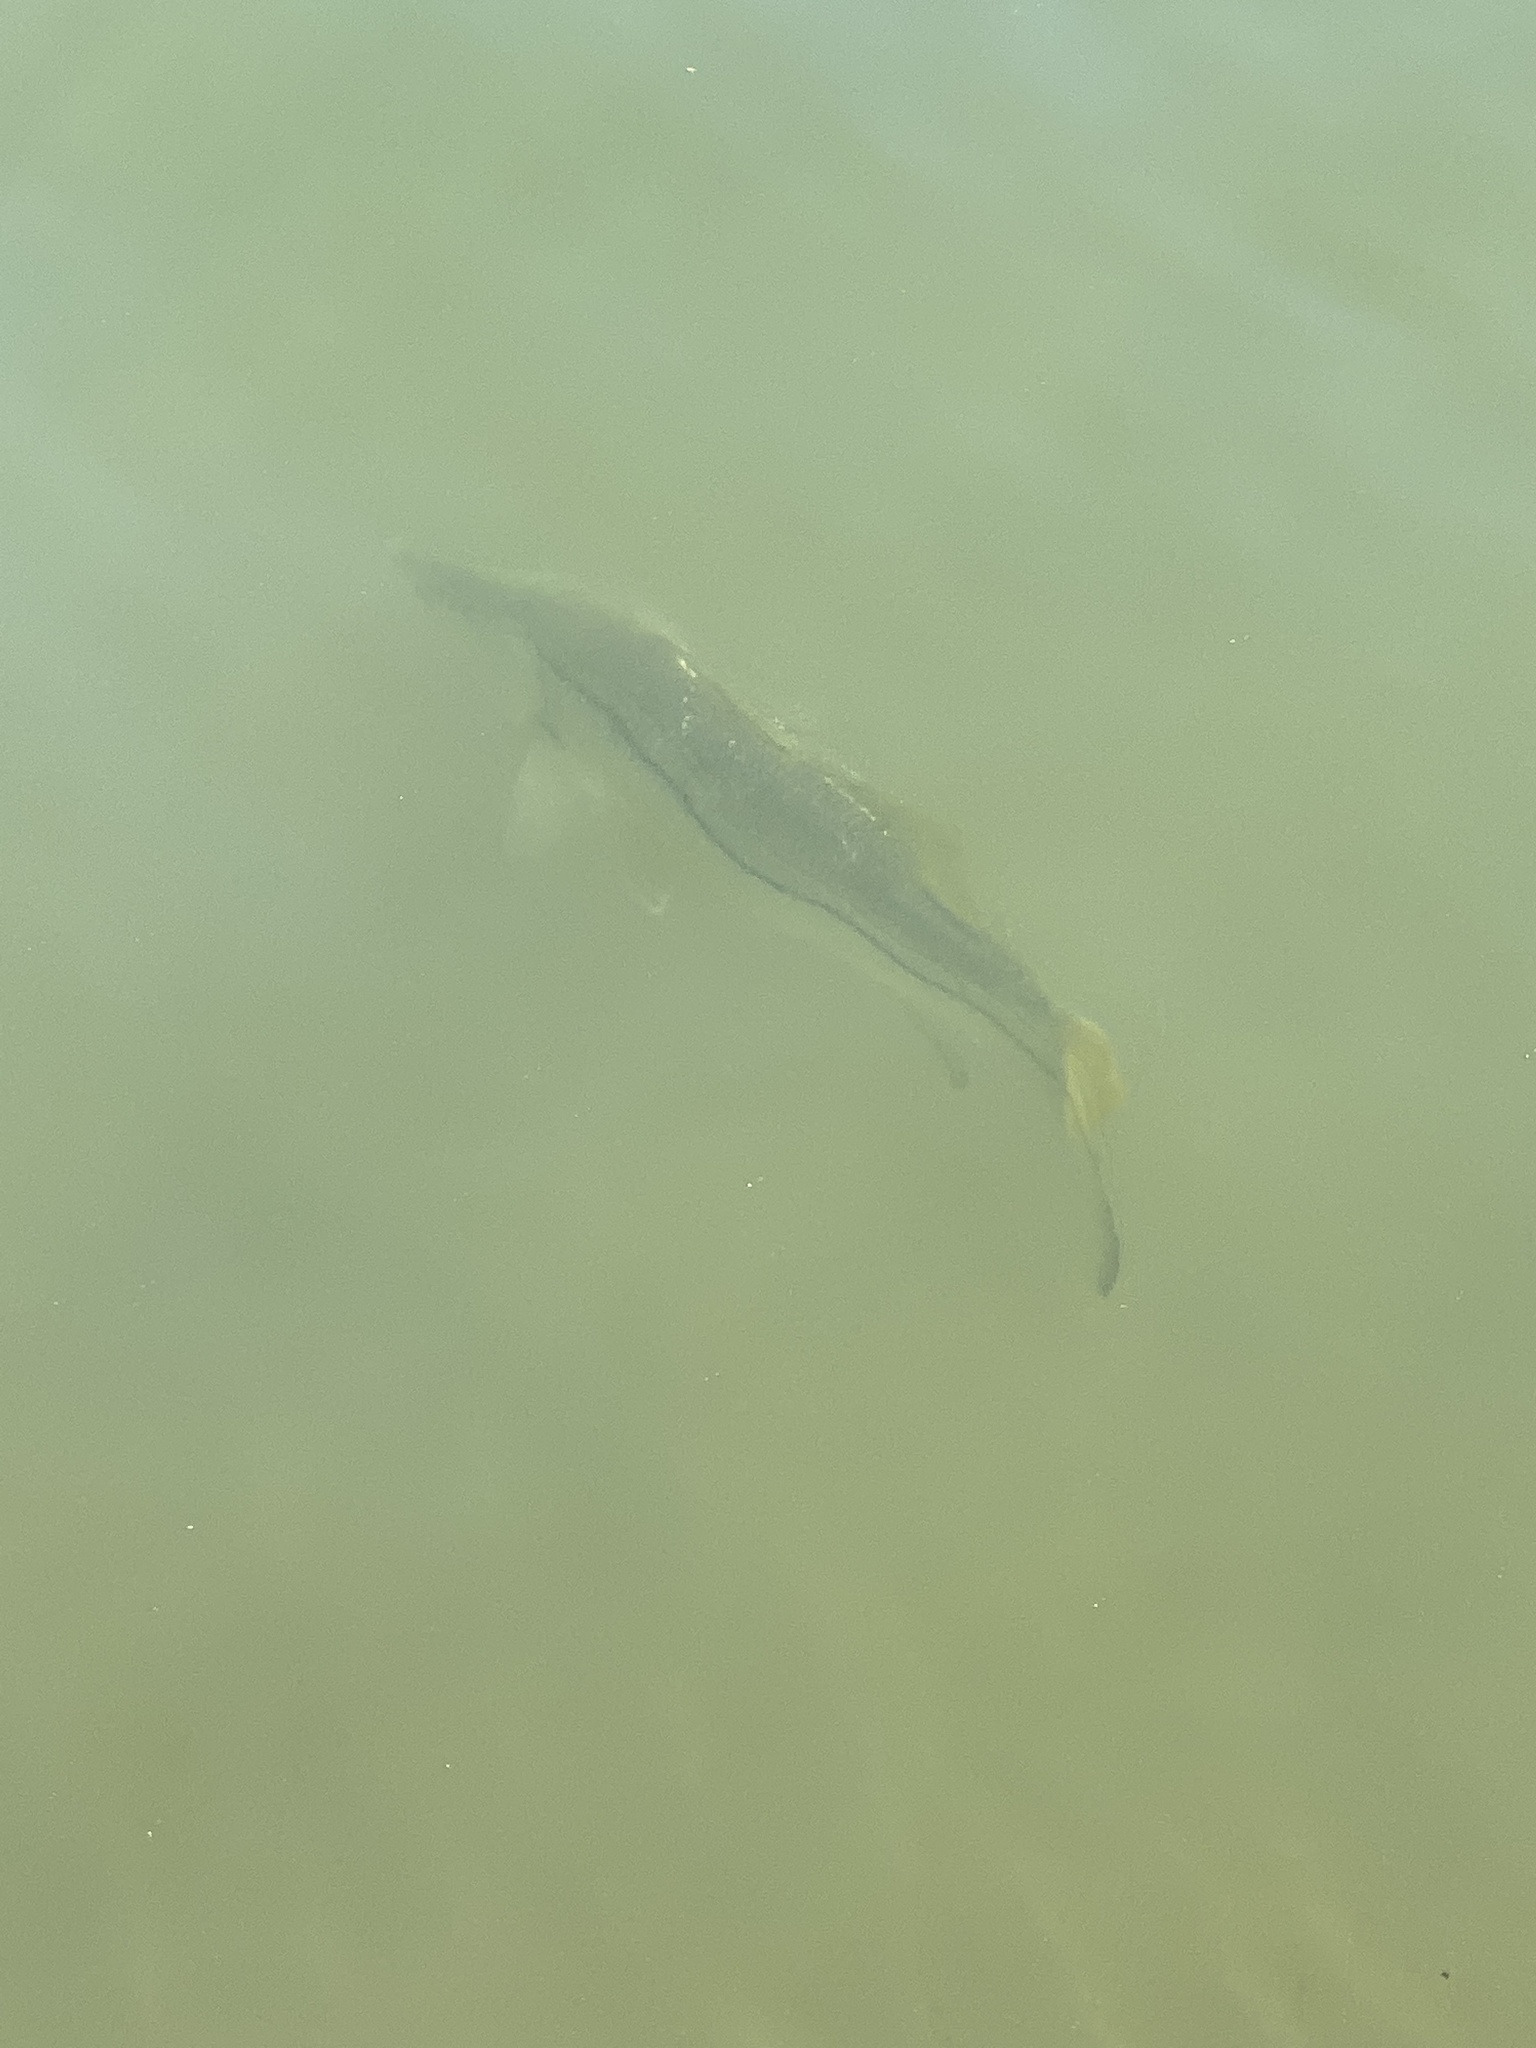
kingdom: Animalia
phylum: Chordata
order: Perciformes
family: Centropomidae
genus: Centropomus
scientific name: Centropomus undecimalis
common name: Snook
